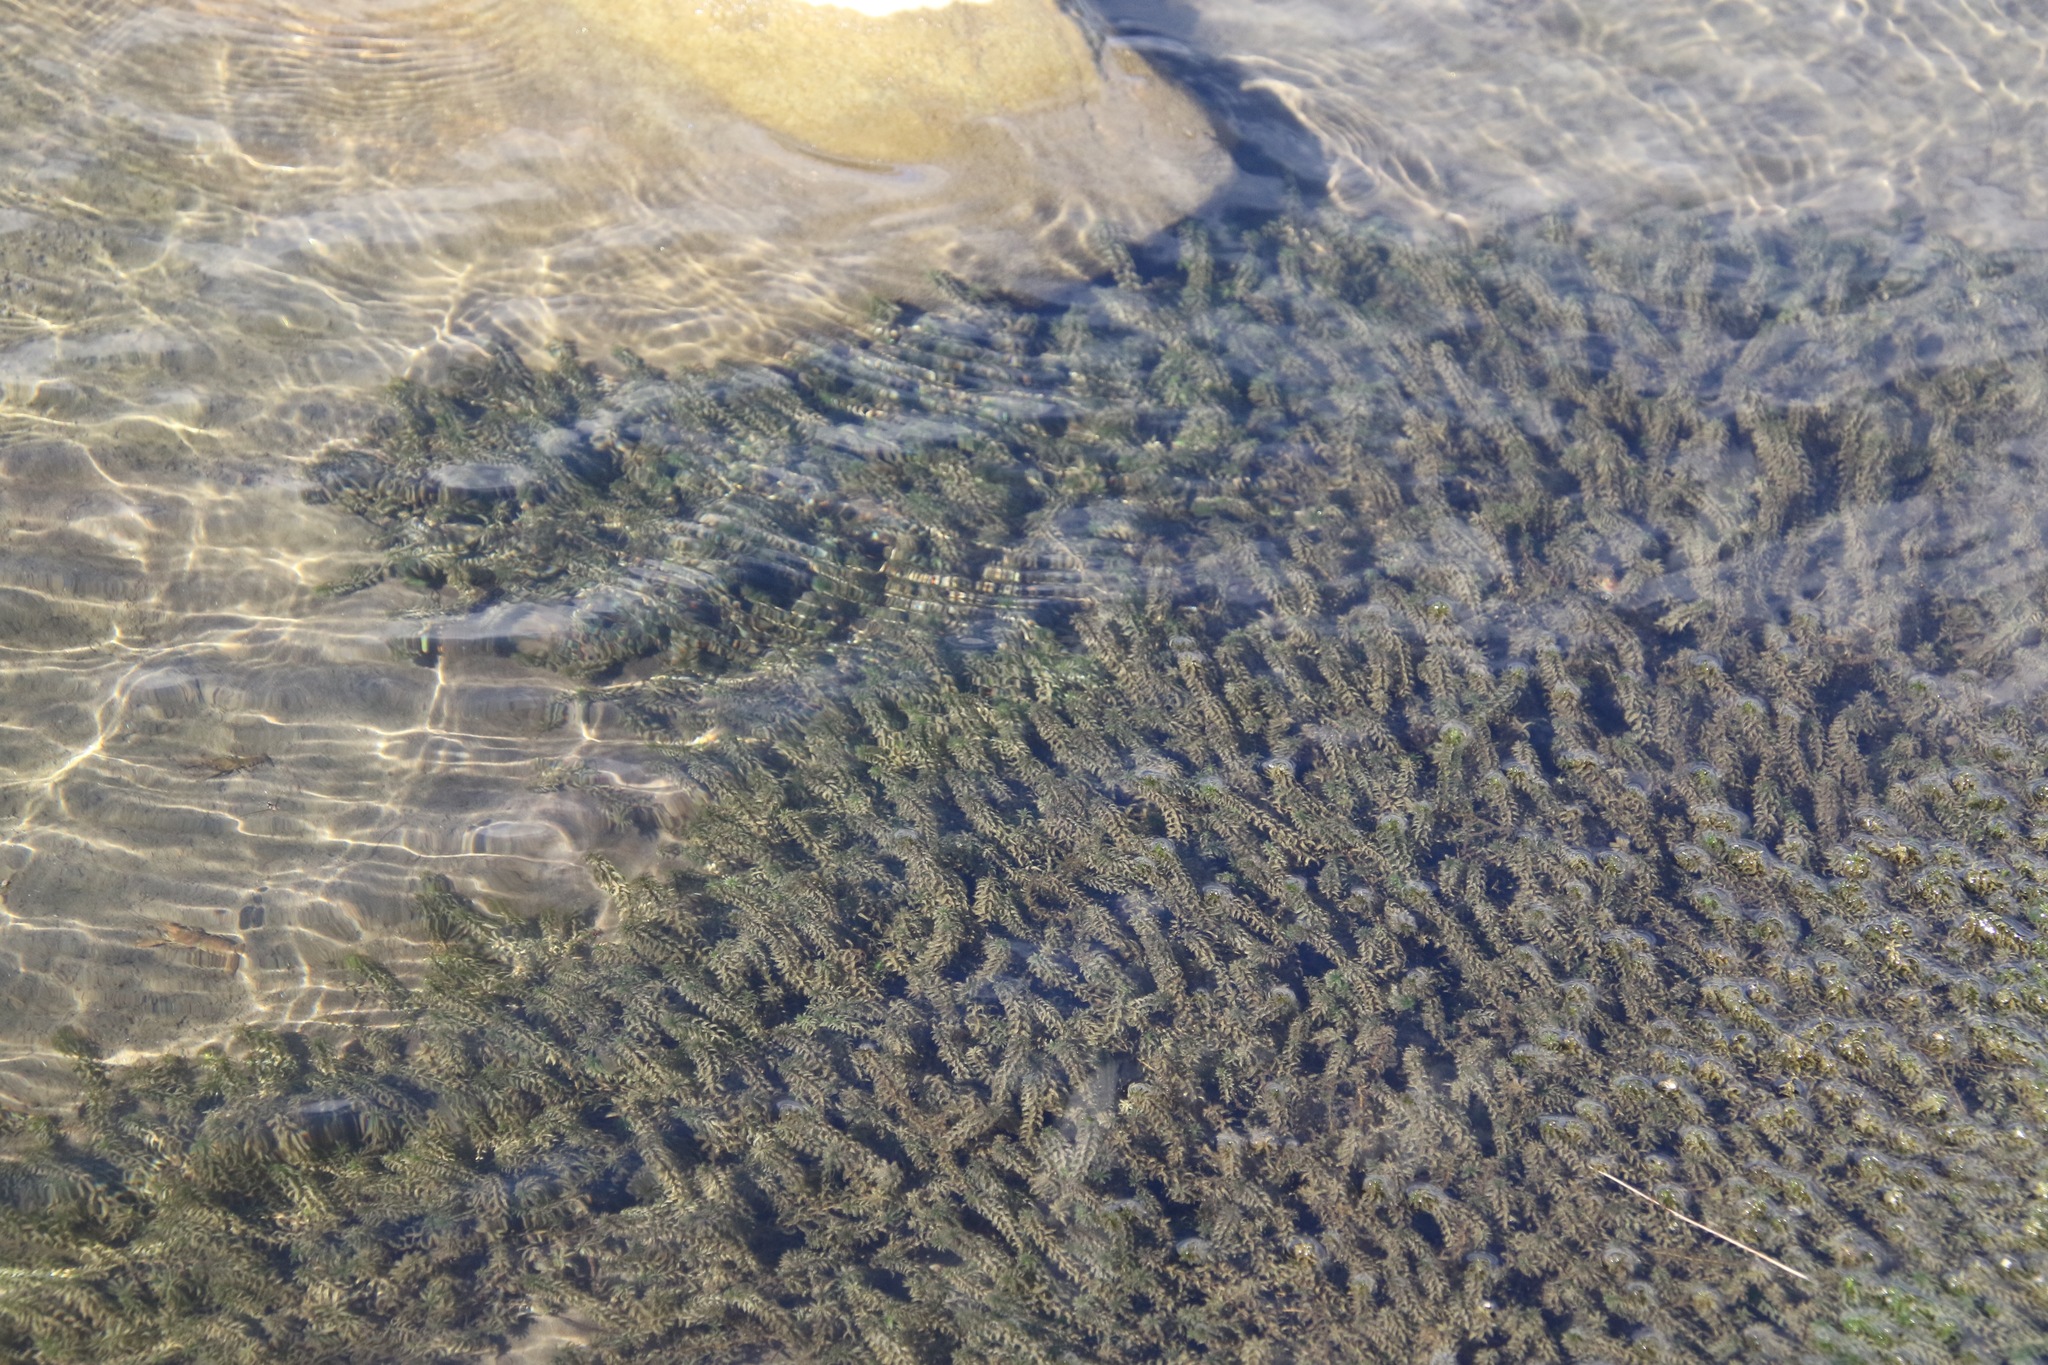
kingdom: Plantae
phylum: Tracheophyta
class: Liliopsida
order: Alismatales
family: Hydrocharitaceae
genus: Elodea
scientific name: Elodea canadensis
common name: Canadian waterweed
